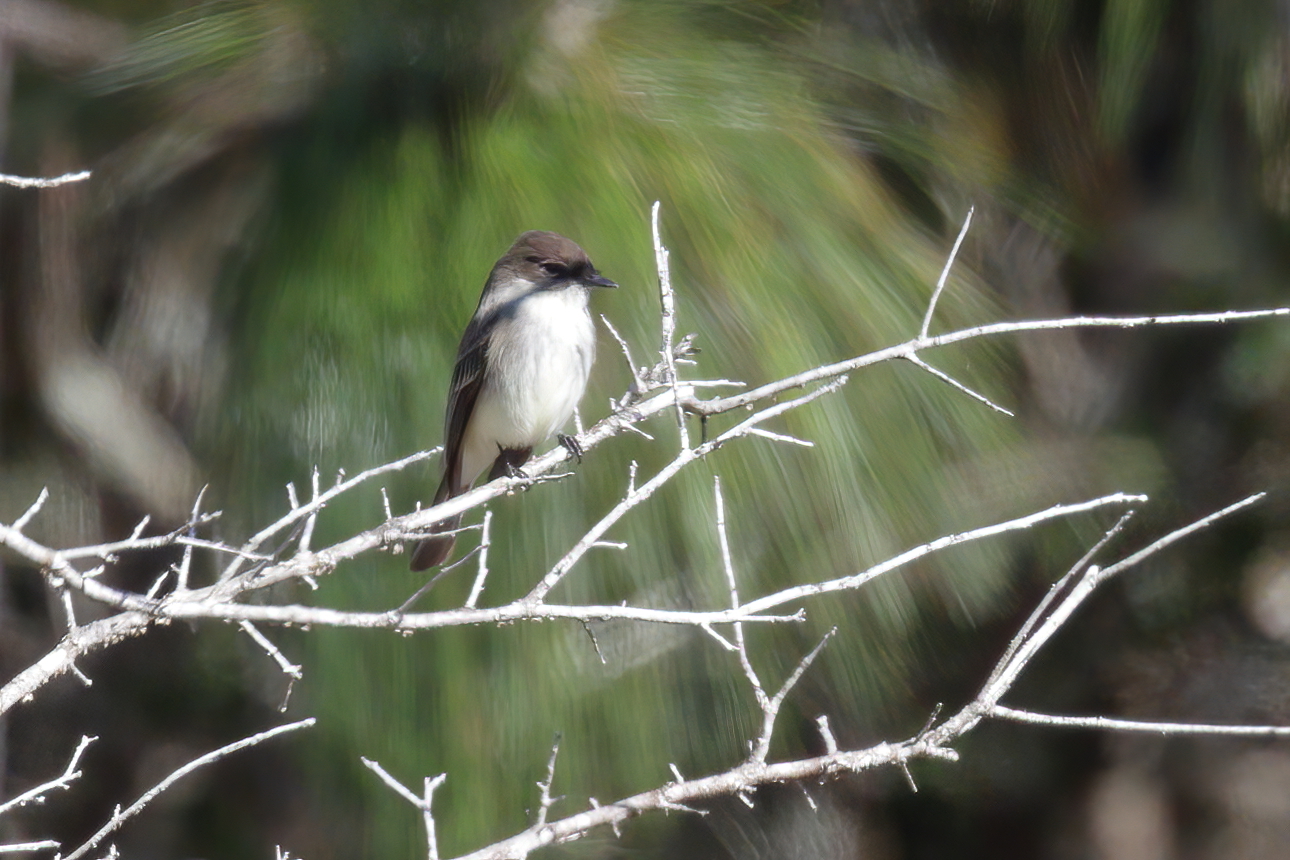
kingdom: Animalia
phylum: Chordata
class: Aves
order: Passeriformes
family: Tyrannidae
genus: Sayornis
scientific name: Sayornis phoebe
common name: Eastern phoebe
